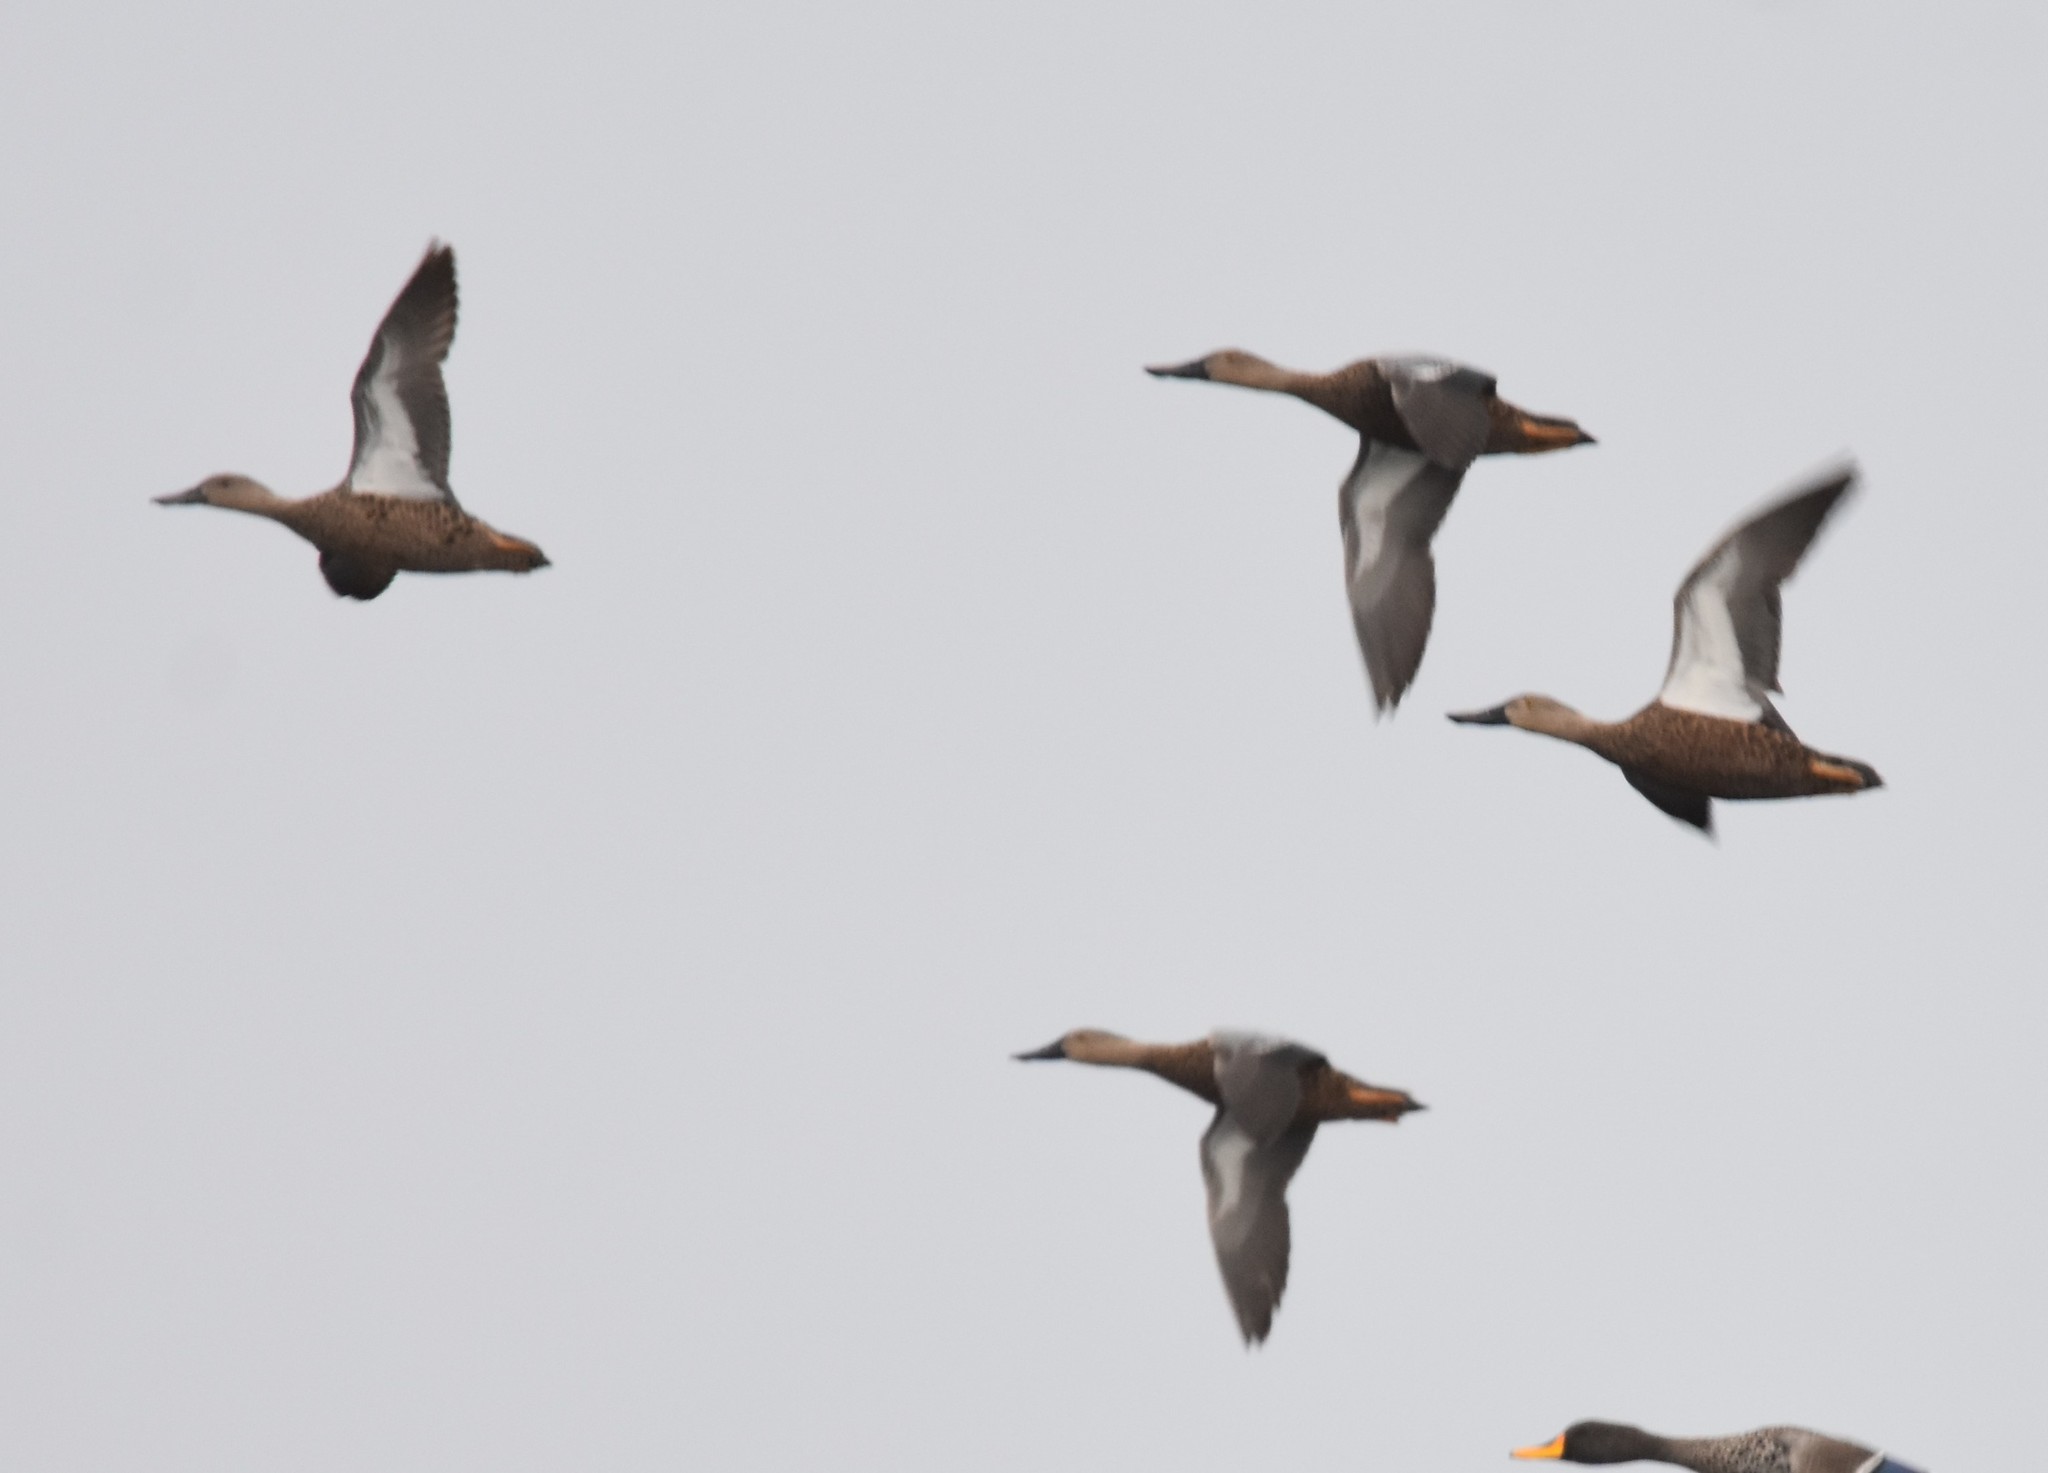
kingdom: Animalia
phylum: Chordata
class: Aves
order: Anseriformes
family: Anatidae
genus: Spatula
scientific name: Spatula smithii
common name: Cape shoveler
